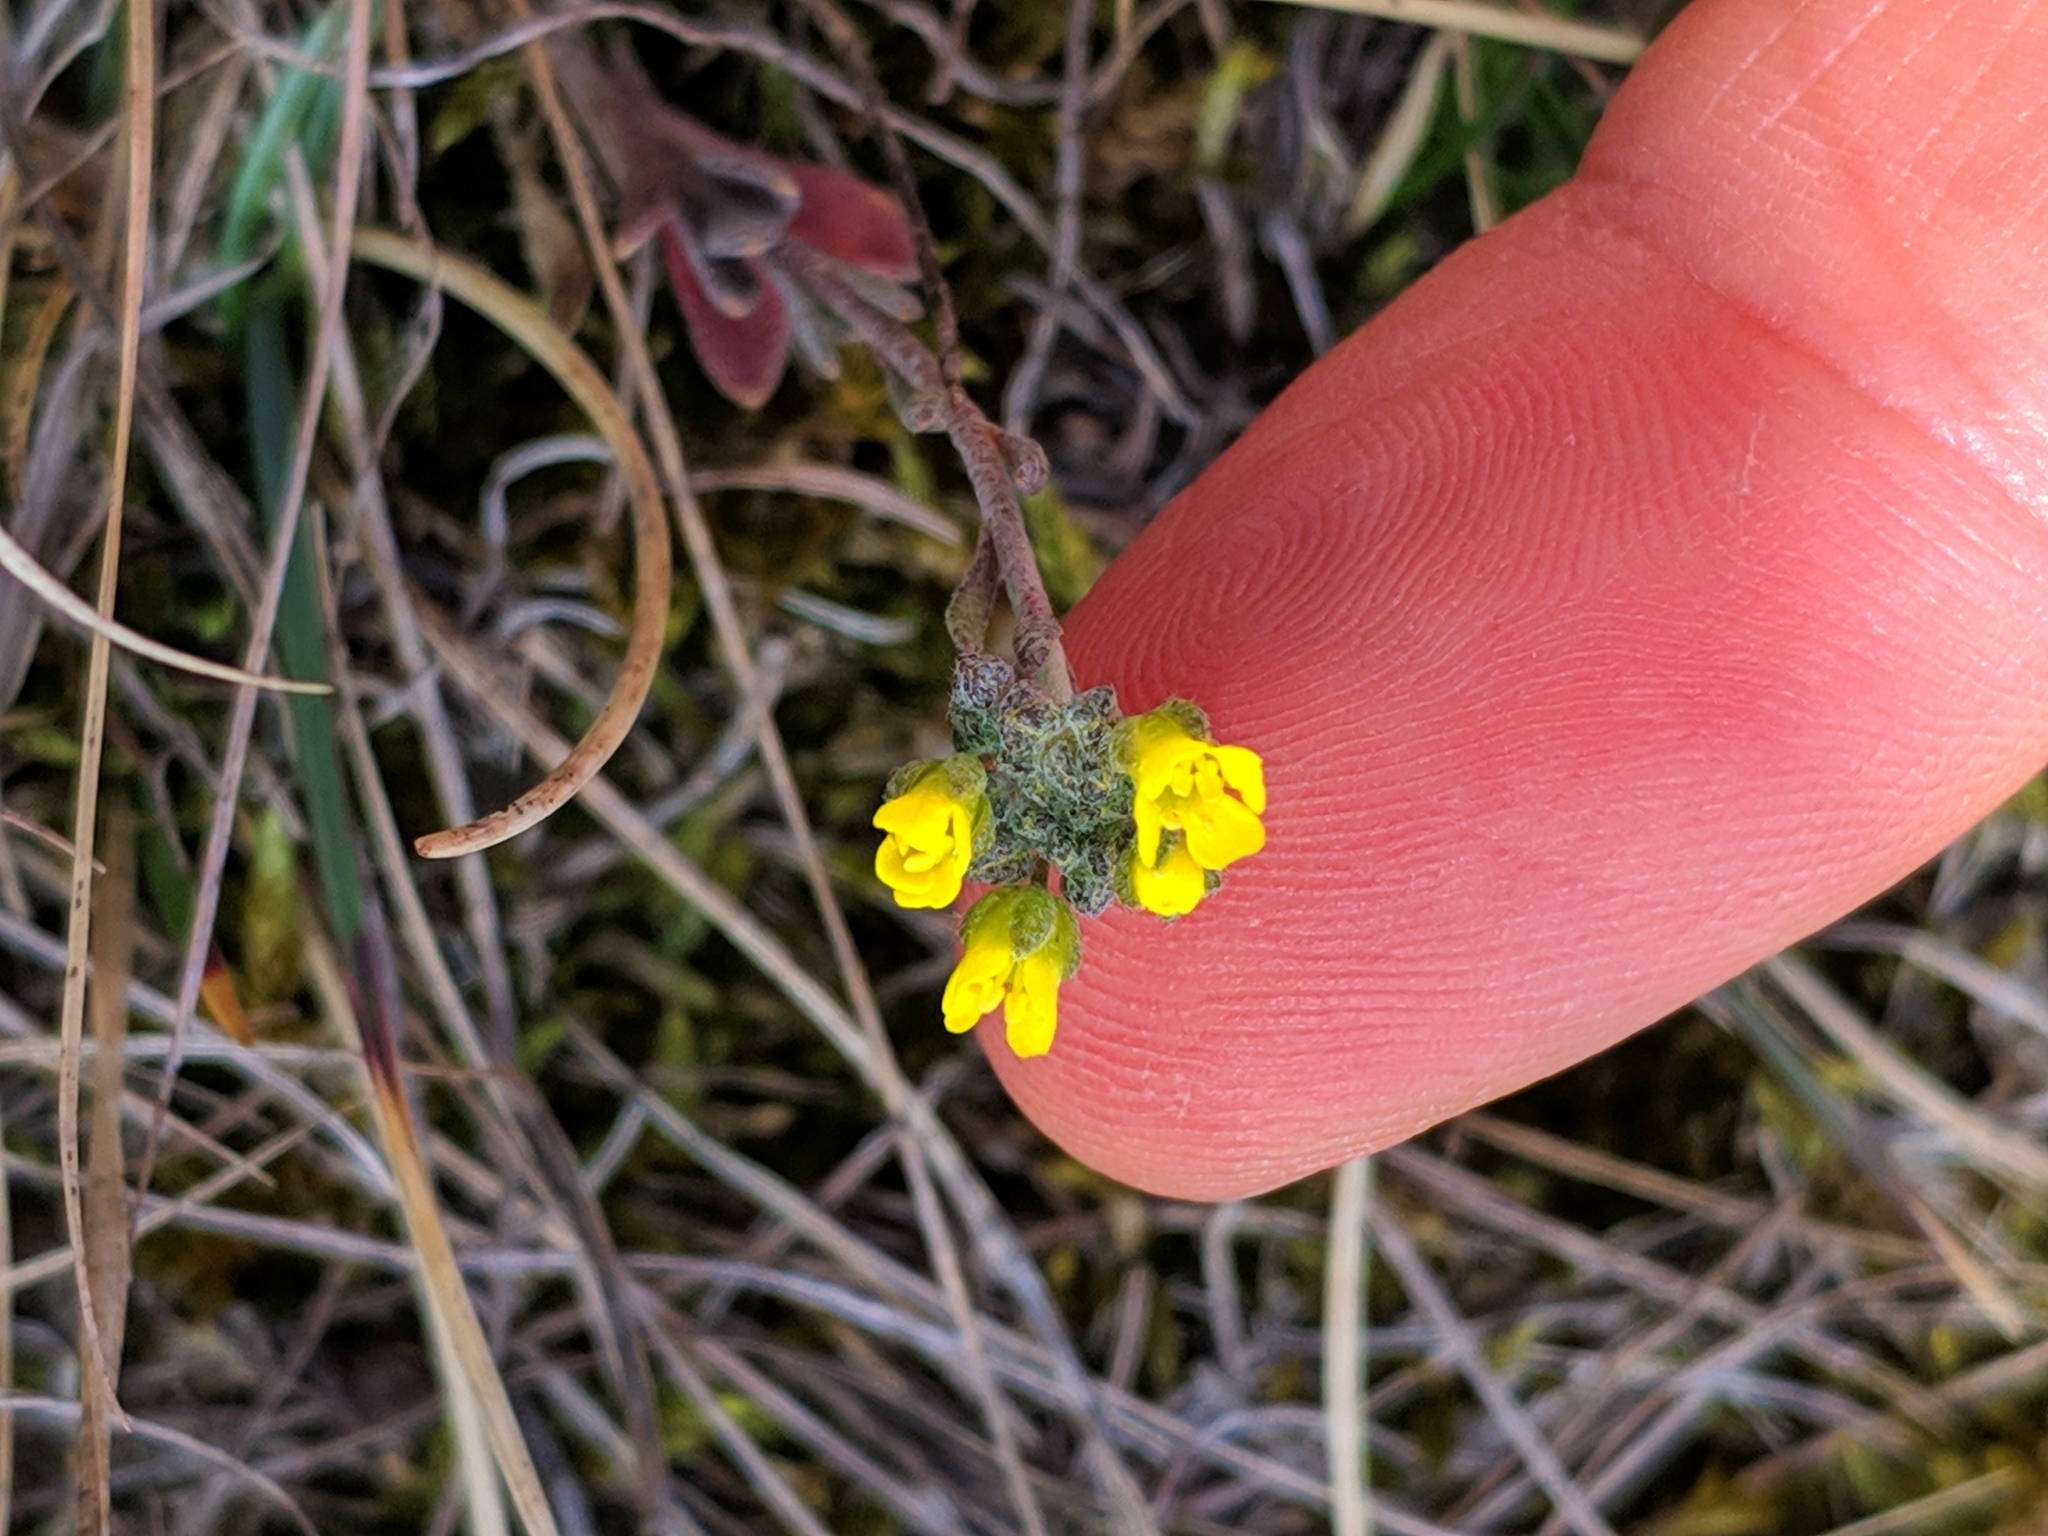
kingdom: Plantae
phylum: Tracheophyta
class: Magnoliopsida
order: Brassicales
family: Brassicaceae
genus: Alyssum
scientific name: Alyssum gmelinii
